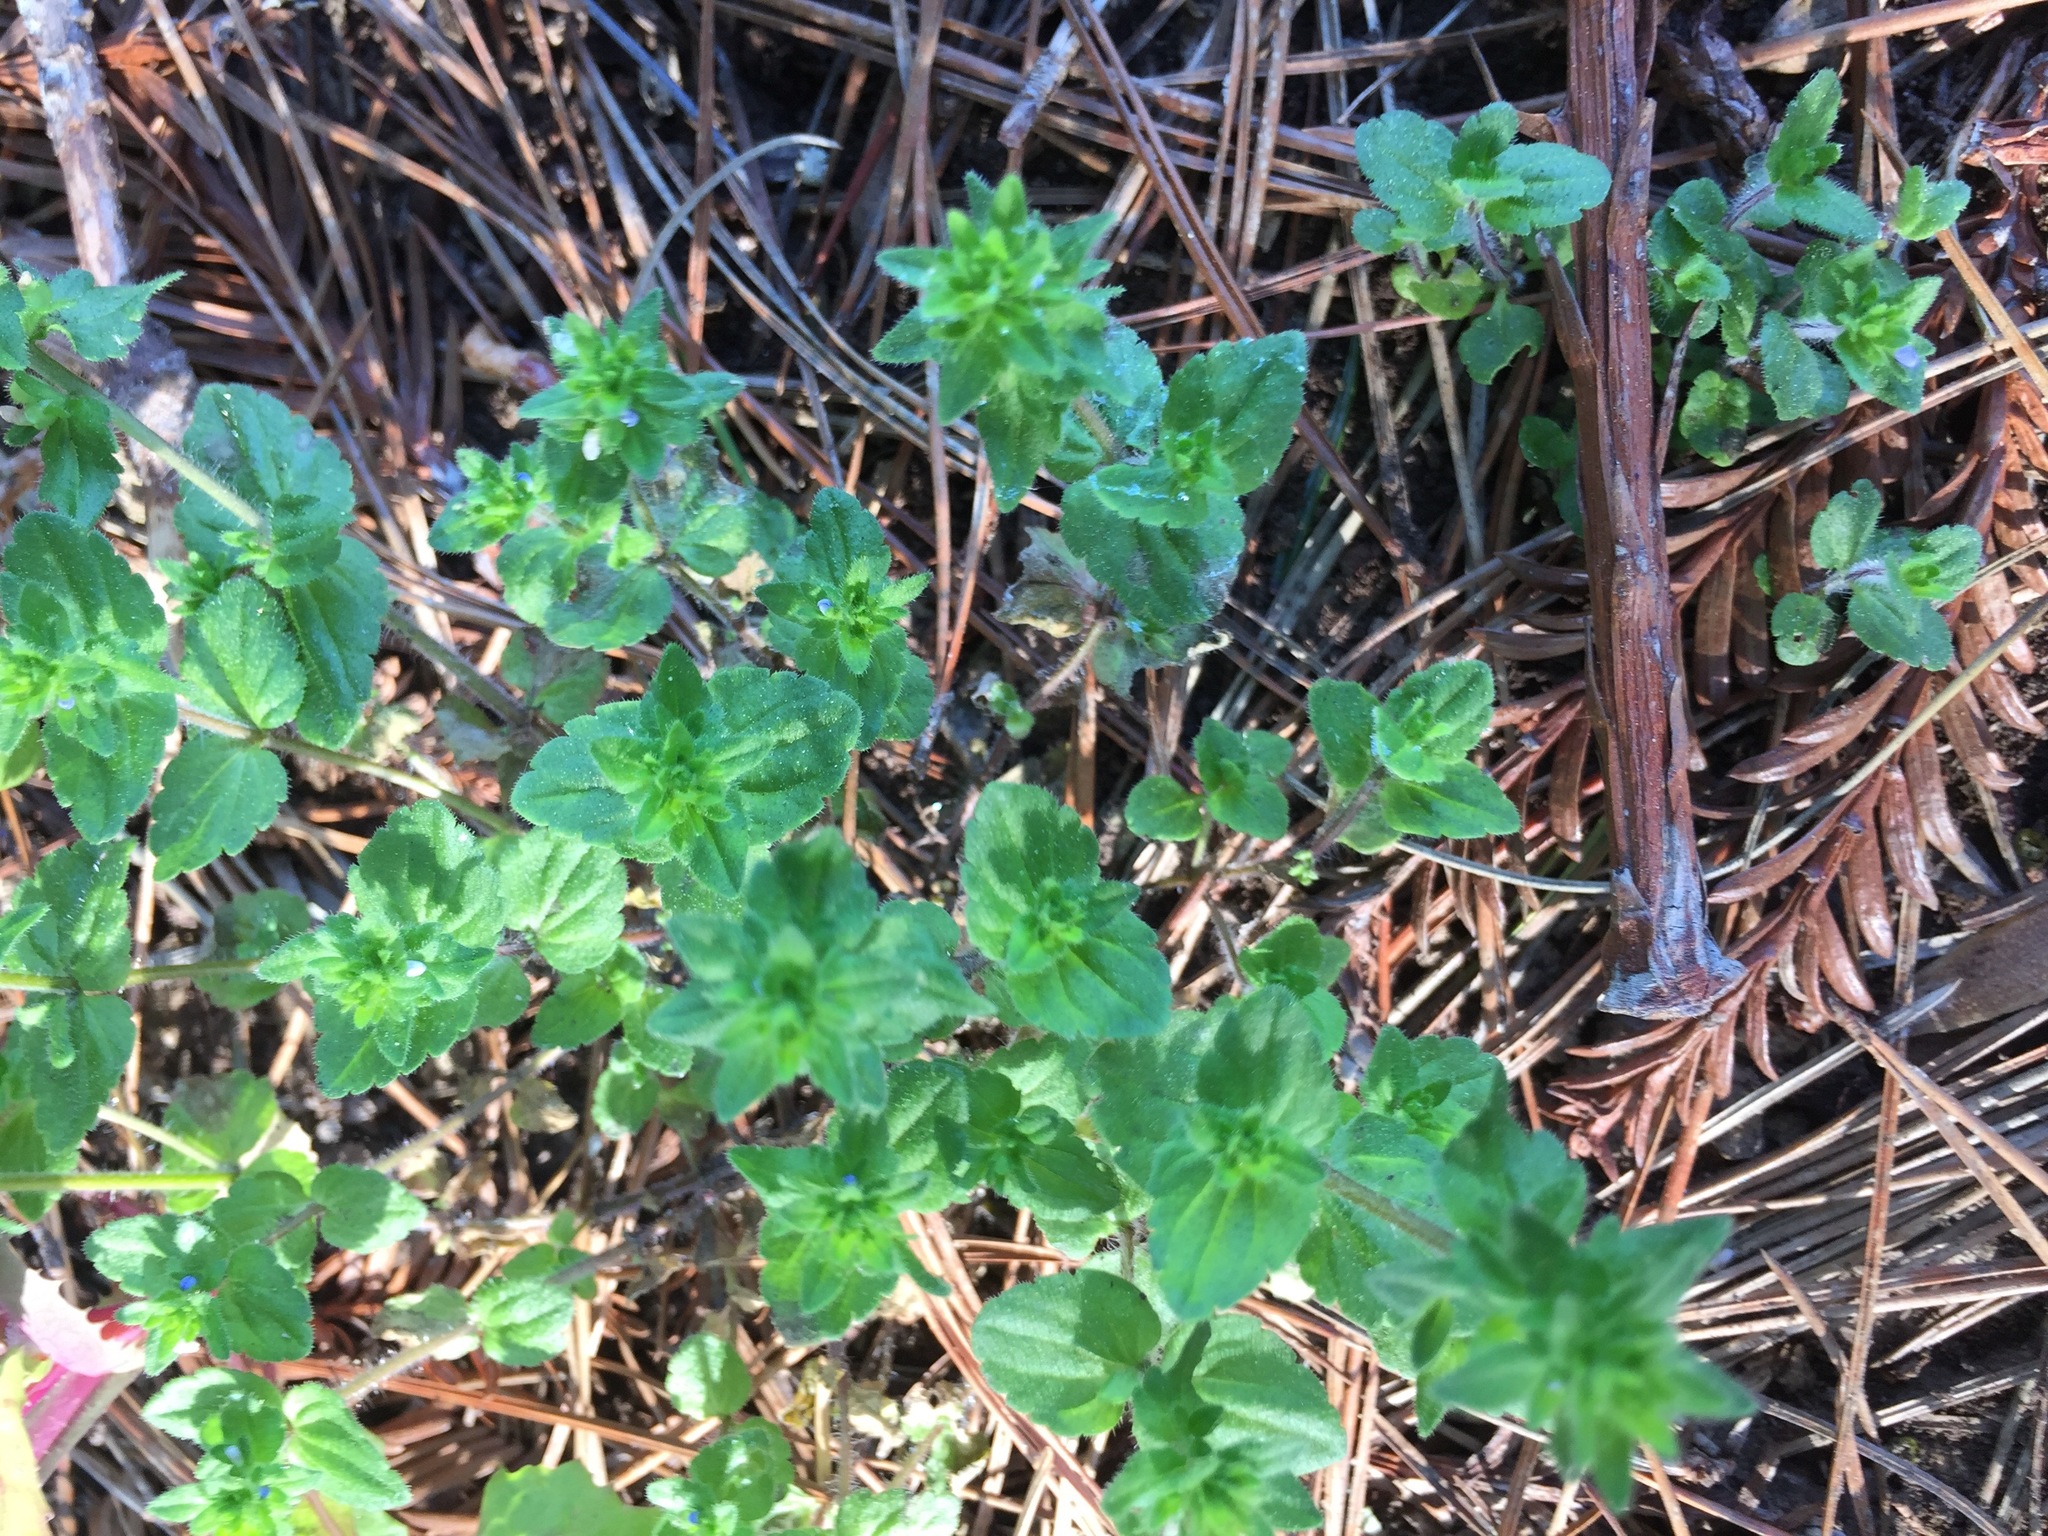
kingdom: Plantae
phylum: Tracheophyta
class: Magnoliopsida
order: Lamiales
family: Plantaginaceae
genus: Veronica
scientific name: Veronica arvensis
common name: Corn speedwell
